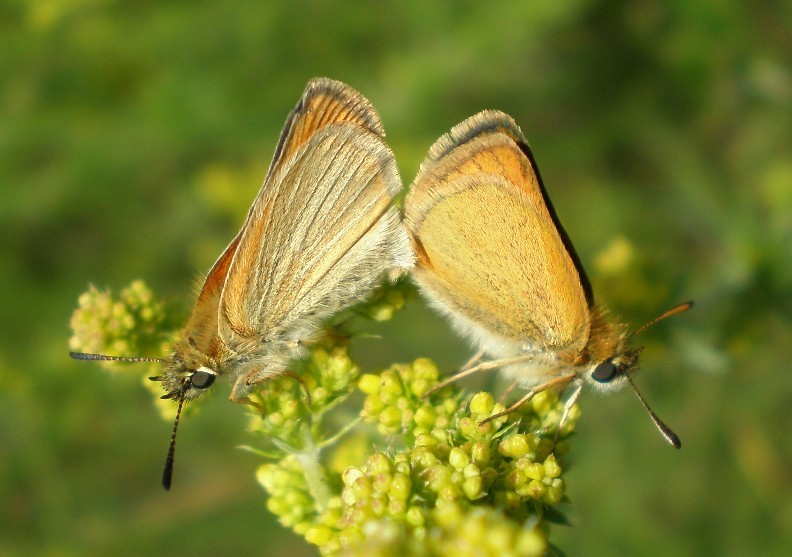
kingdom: Animalia
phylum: Arthropoda
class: Insecta
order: Lepidoptera
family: Hesperiidae
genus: Thymelicus
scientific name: Thymelicus lineola
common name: Essex skipper
